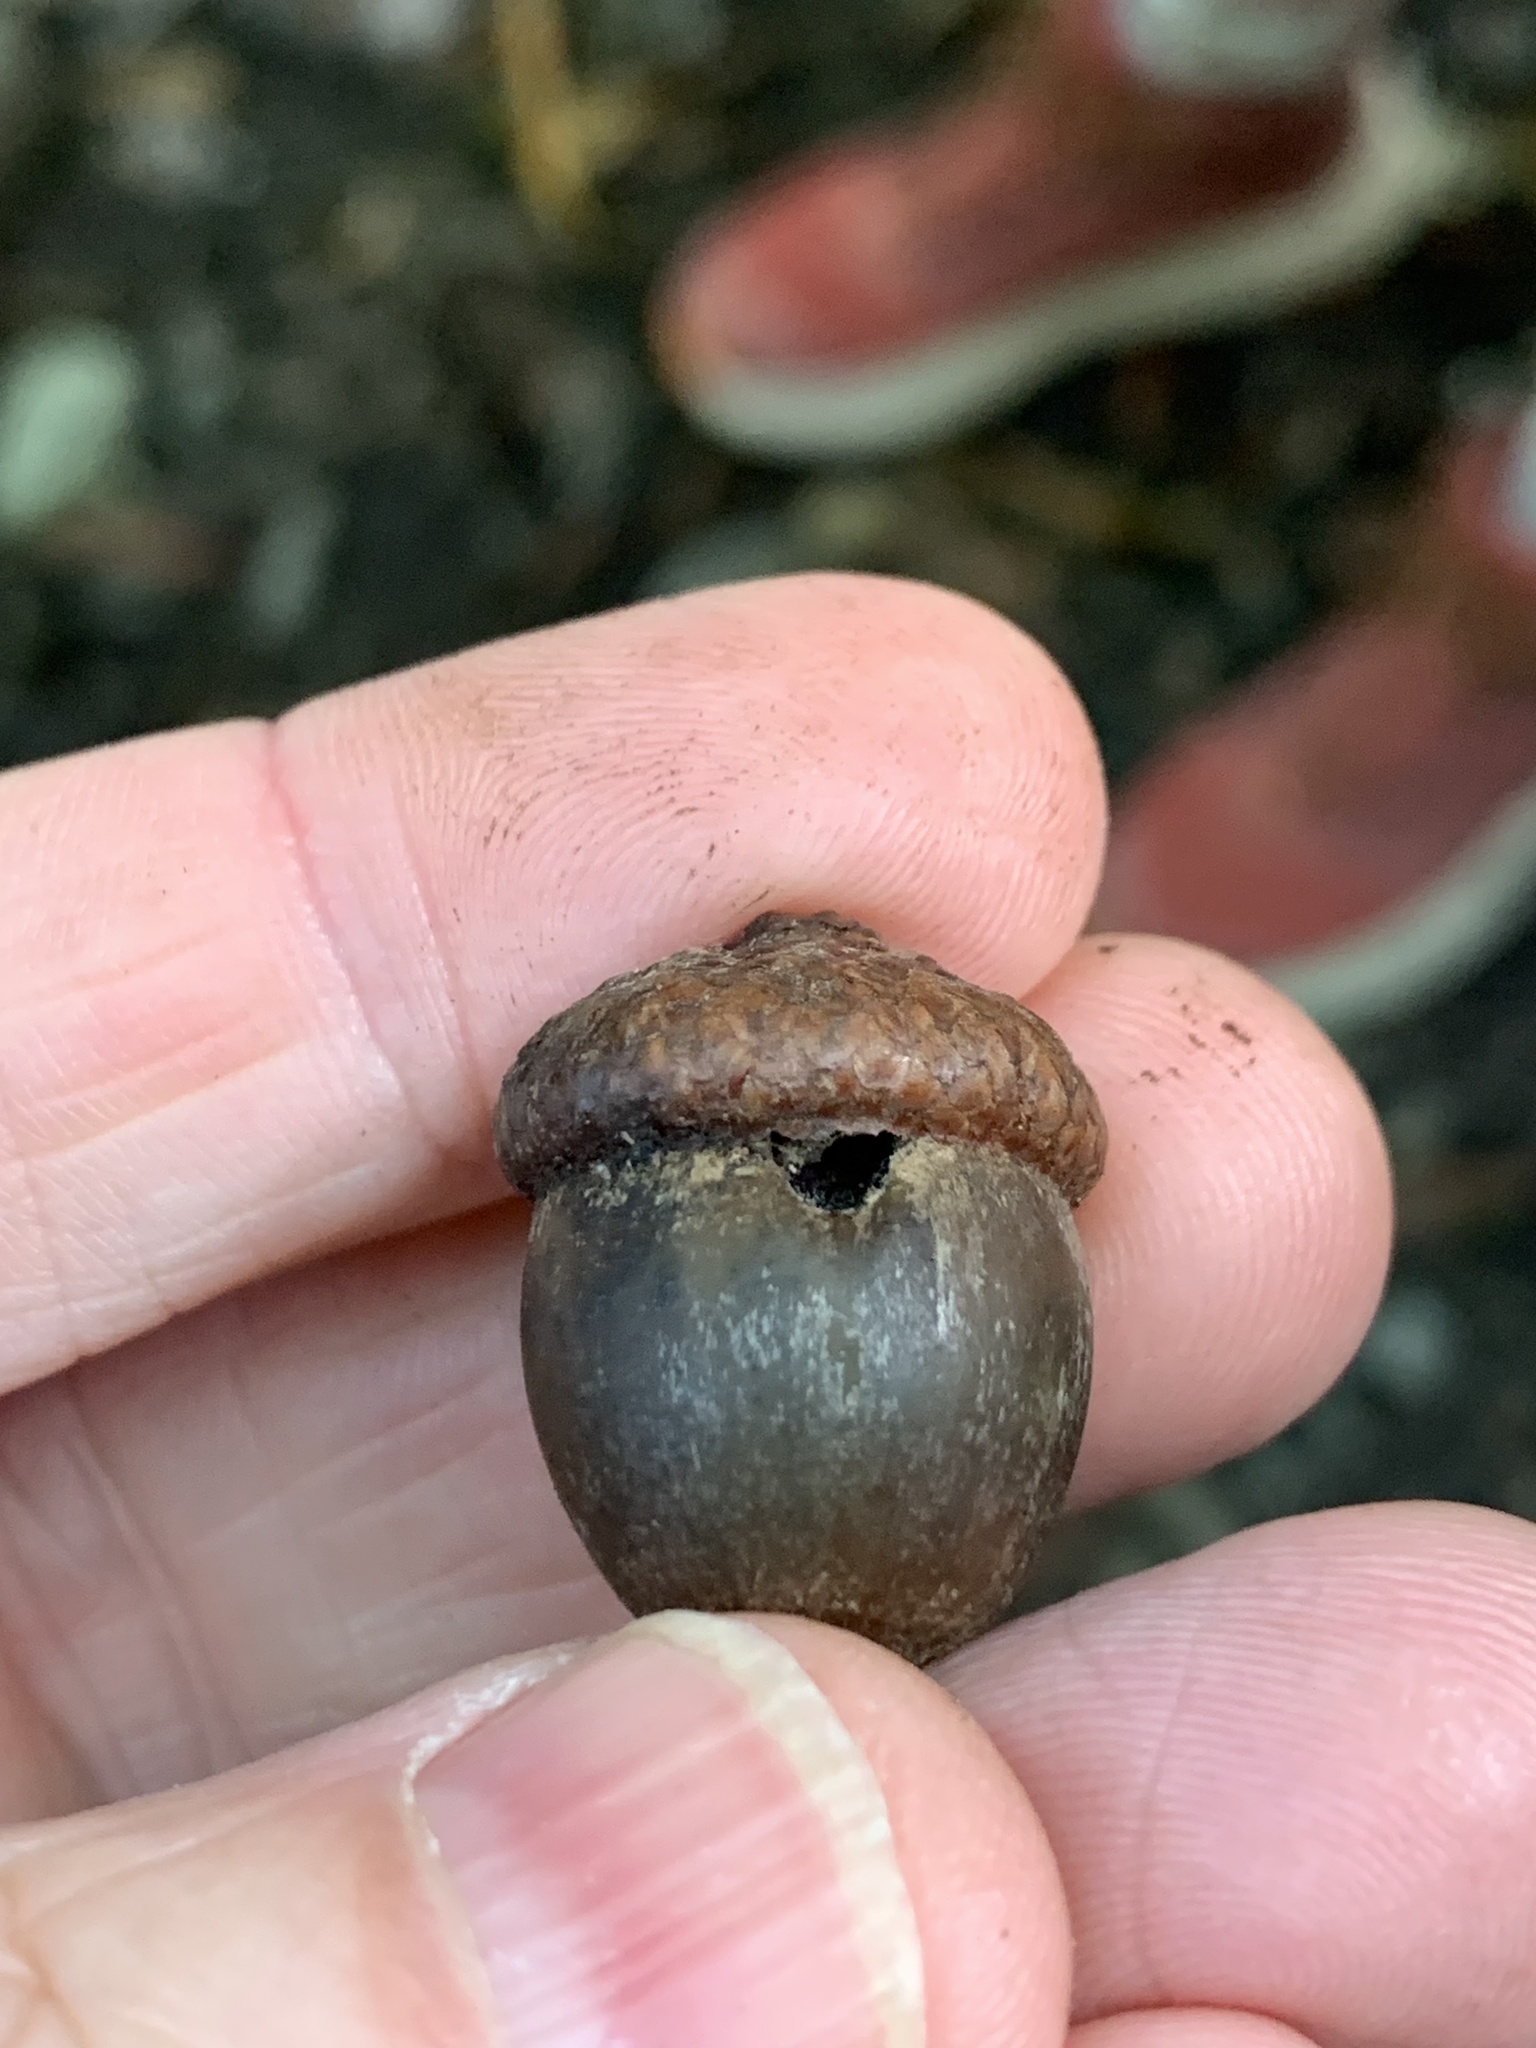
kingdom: Animalia
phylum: Arthropoda
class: Insecta
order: Hymenoptera
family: Cynipidae
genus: Callirhytis
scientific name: Callirhytis
